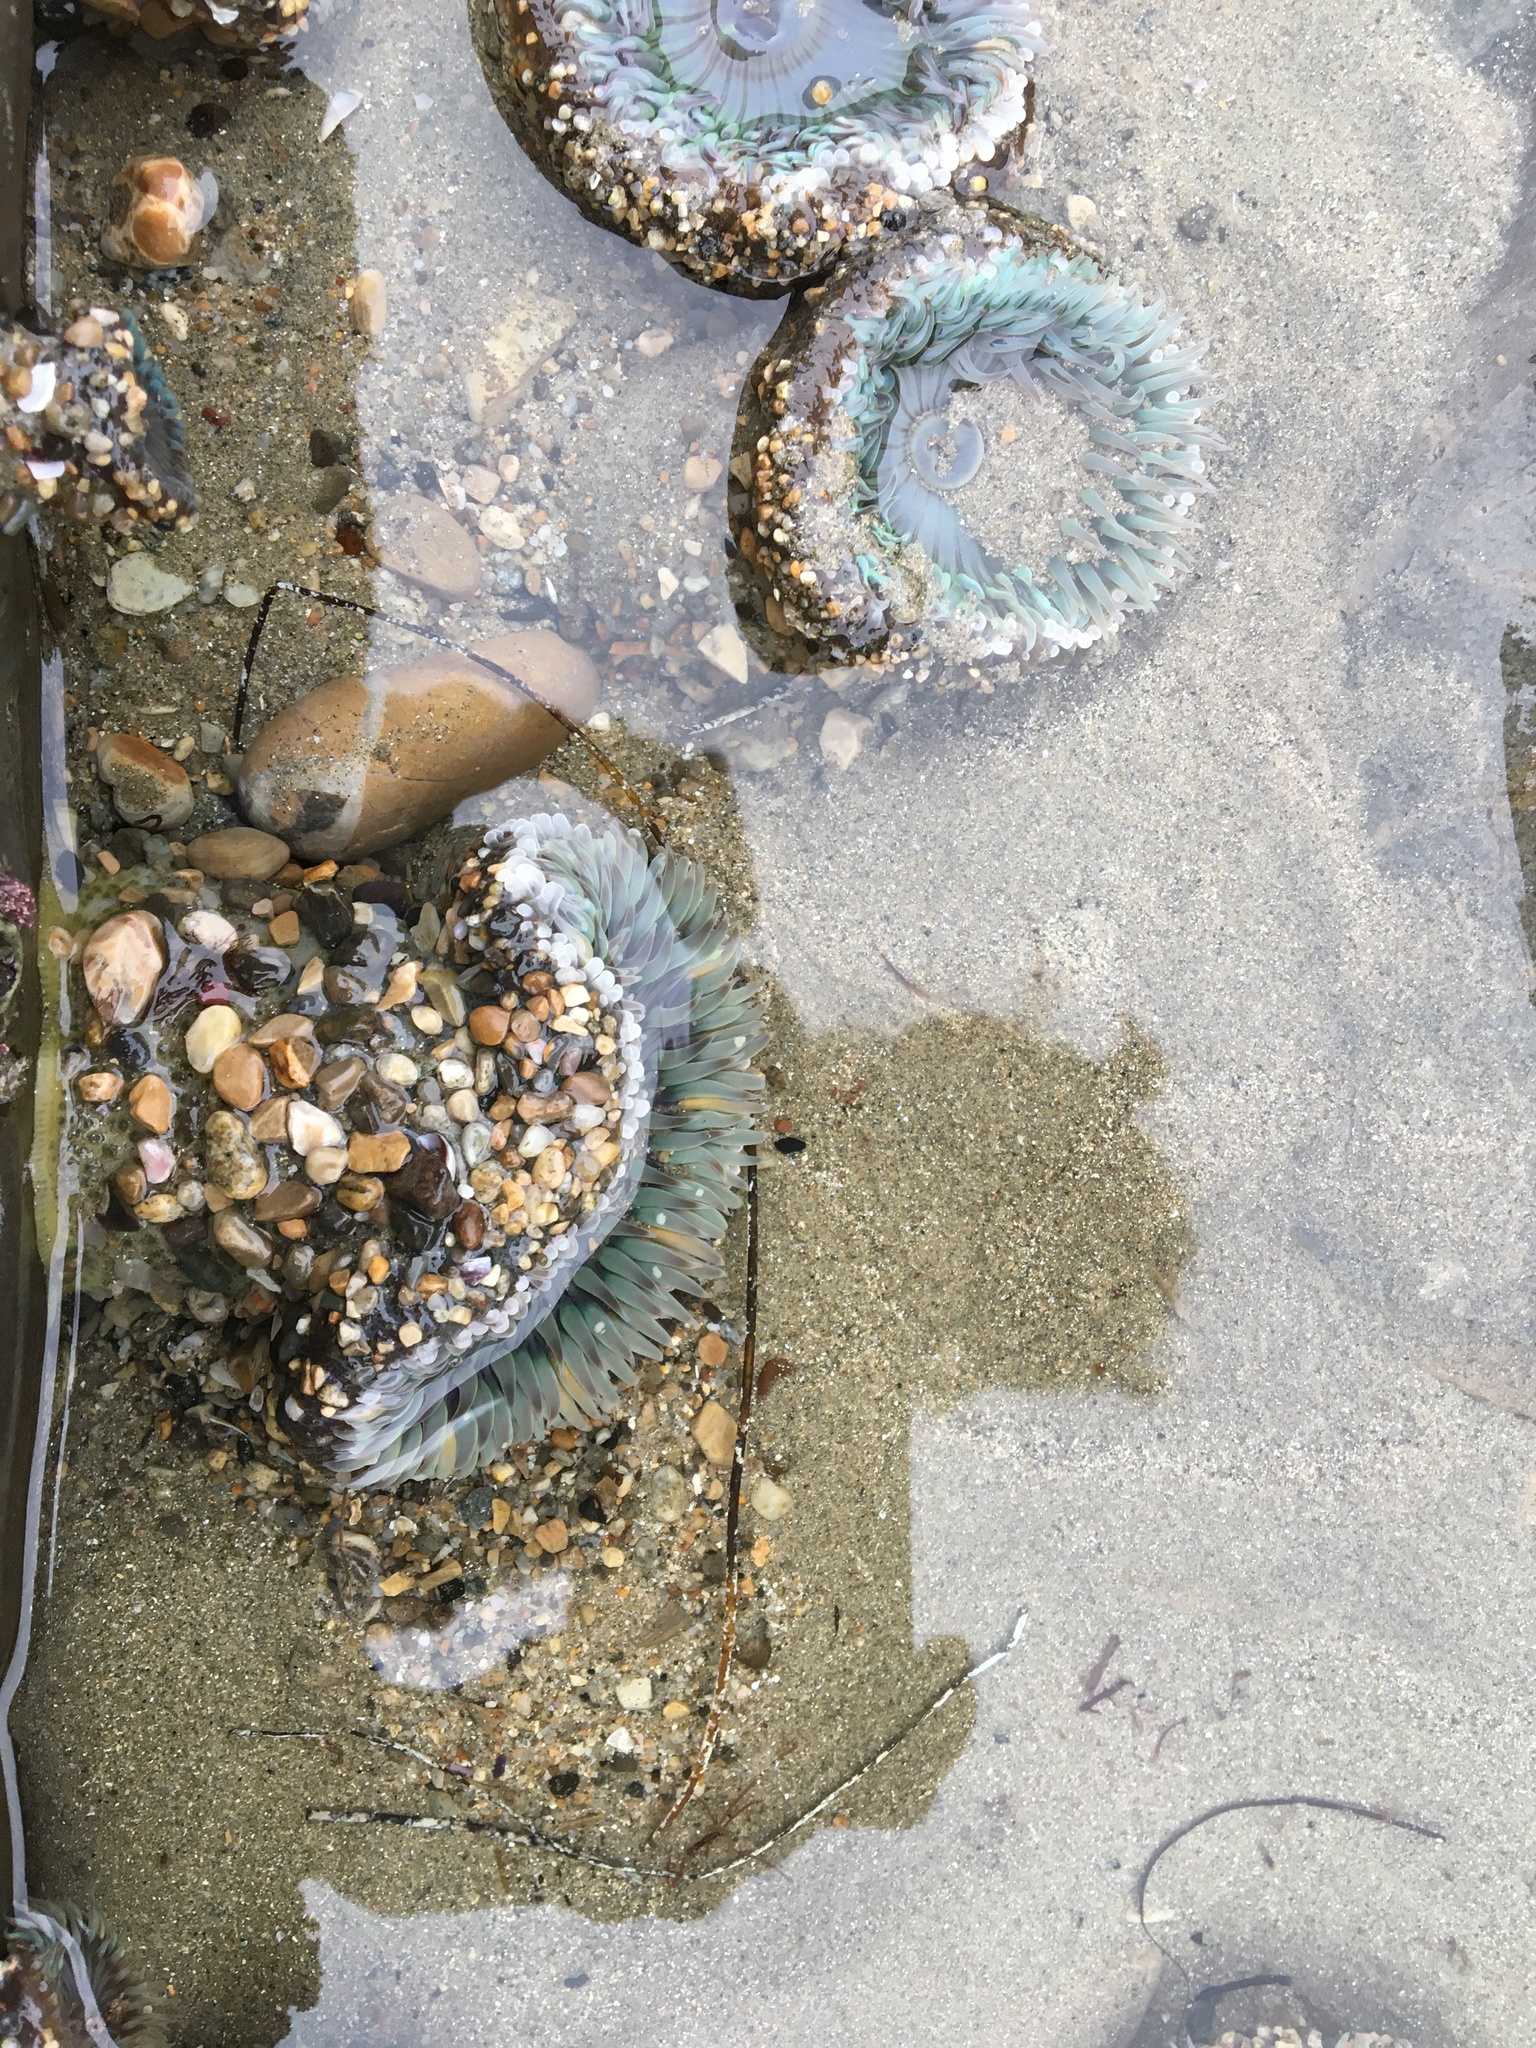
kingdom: Animalia
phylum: Cnidaria
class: Anthozoa
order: Actiniaria
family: Actiniidae
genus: Anthopleura
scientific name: Anthopleura sola
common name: Sun anemone
